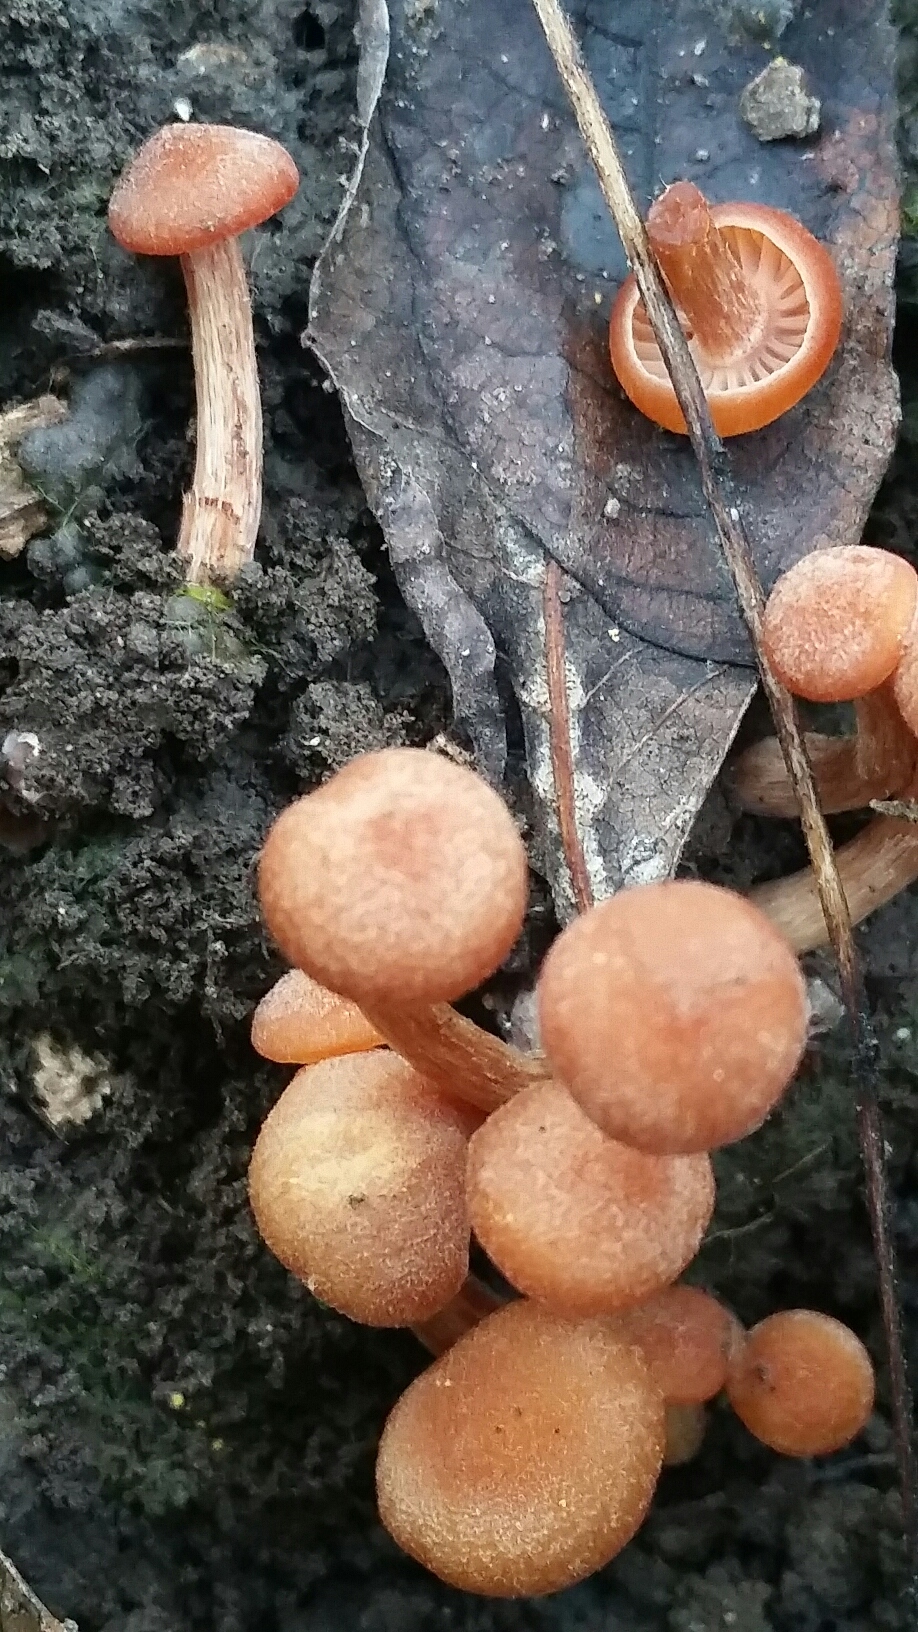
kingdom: Fungi
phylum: Basidiomycota
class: Agaricomycetes
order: Agaricales
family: Hydnangiaceae
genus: Laccaria
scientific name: Laccaria laccata
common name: Deceiver
